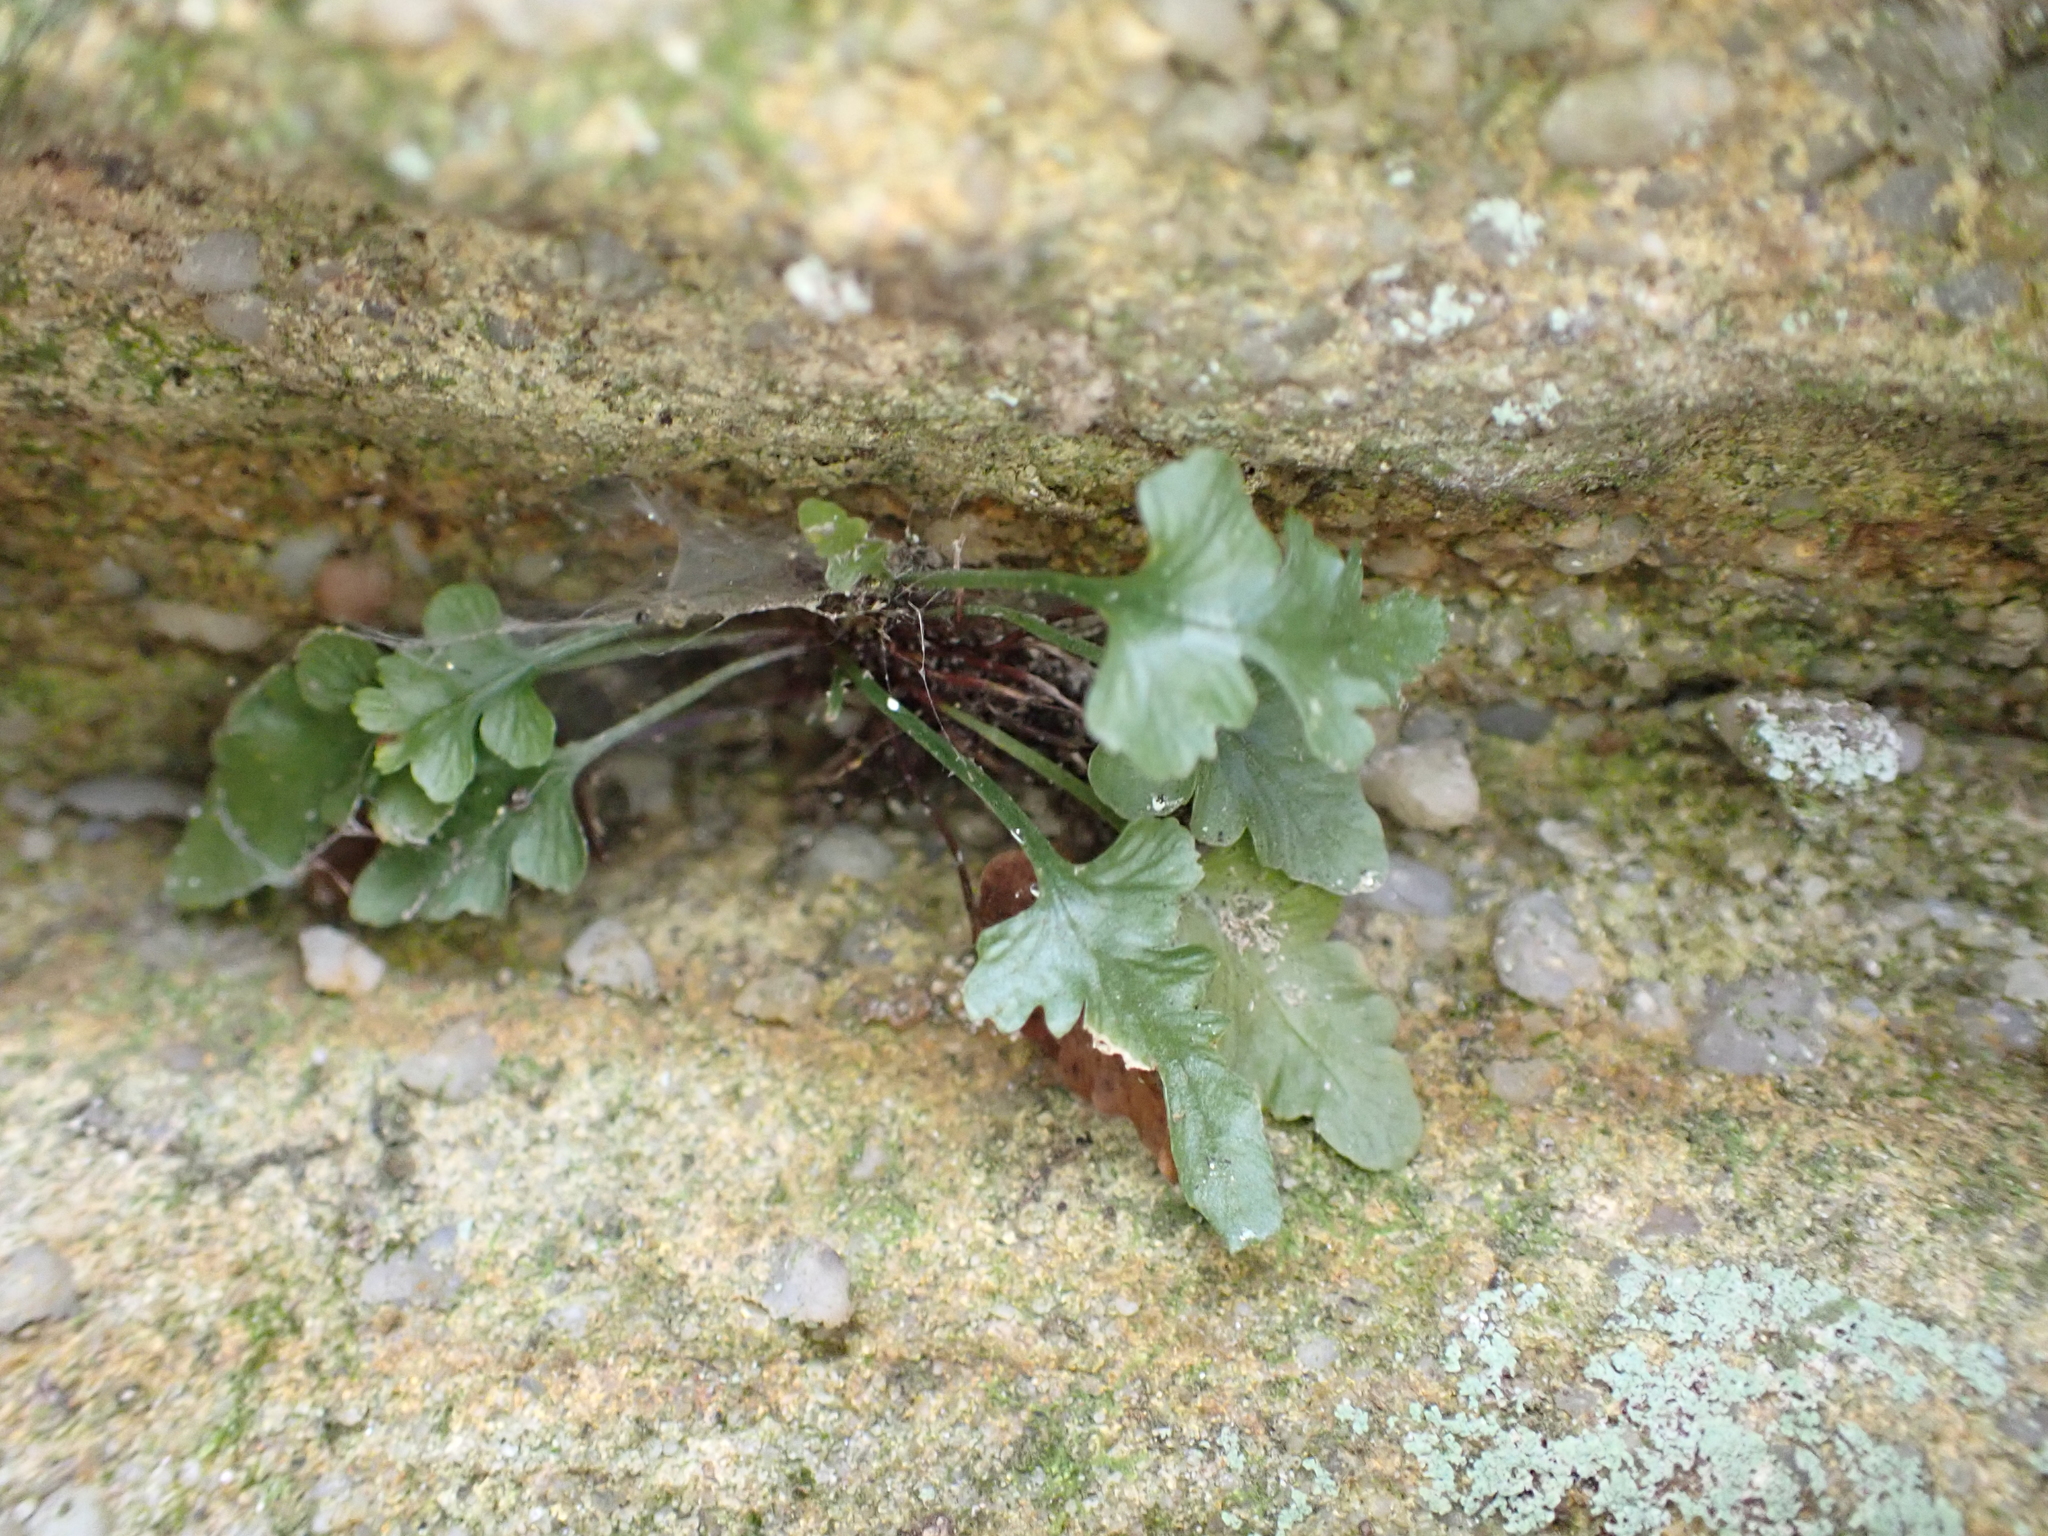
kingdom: Plantae
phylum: Tracheophyta
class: Polypodiopsida
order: Polypodiales
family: Aspleniaceae
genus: Asplenium
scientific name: Asplenium pinnatifidum
